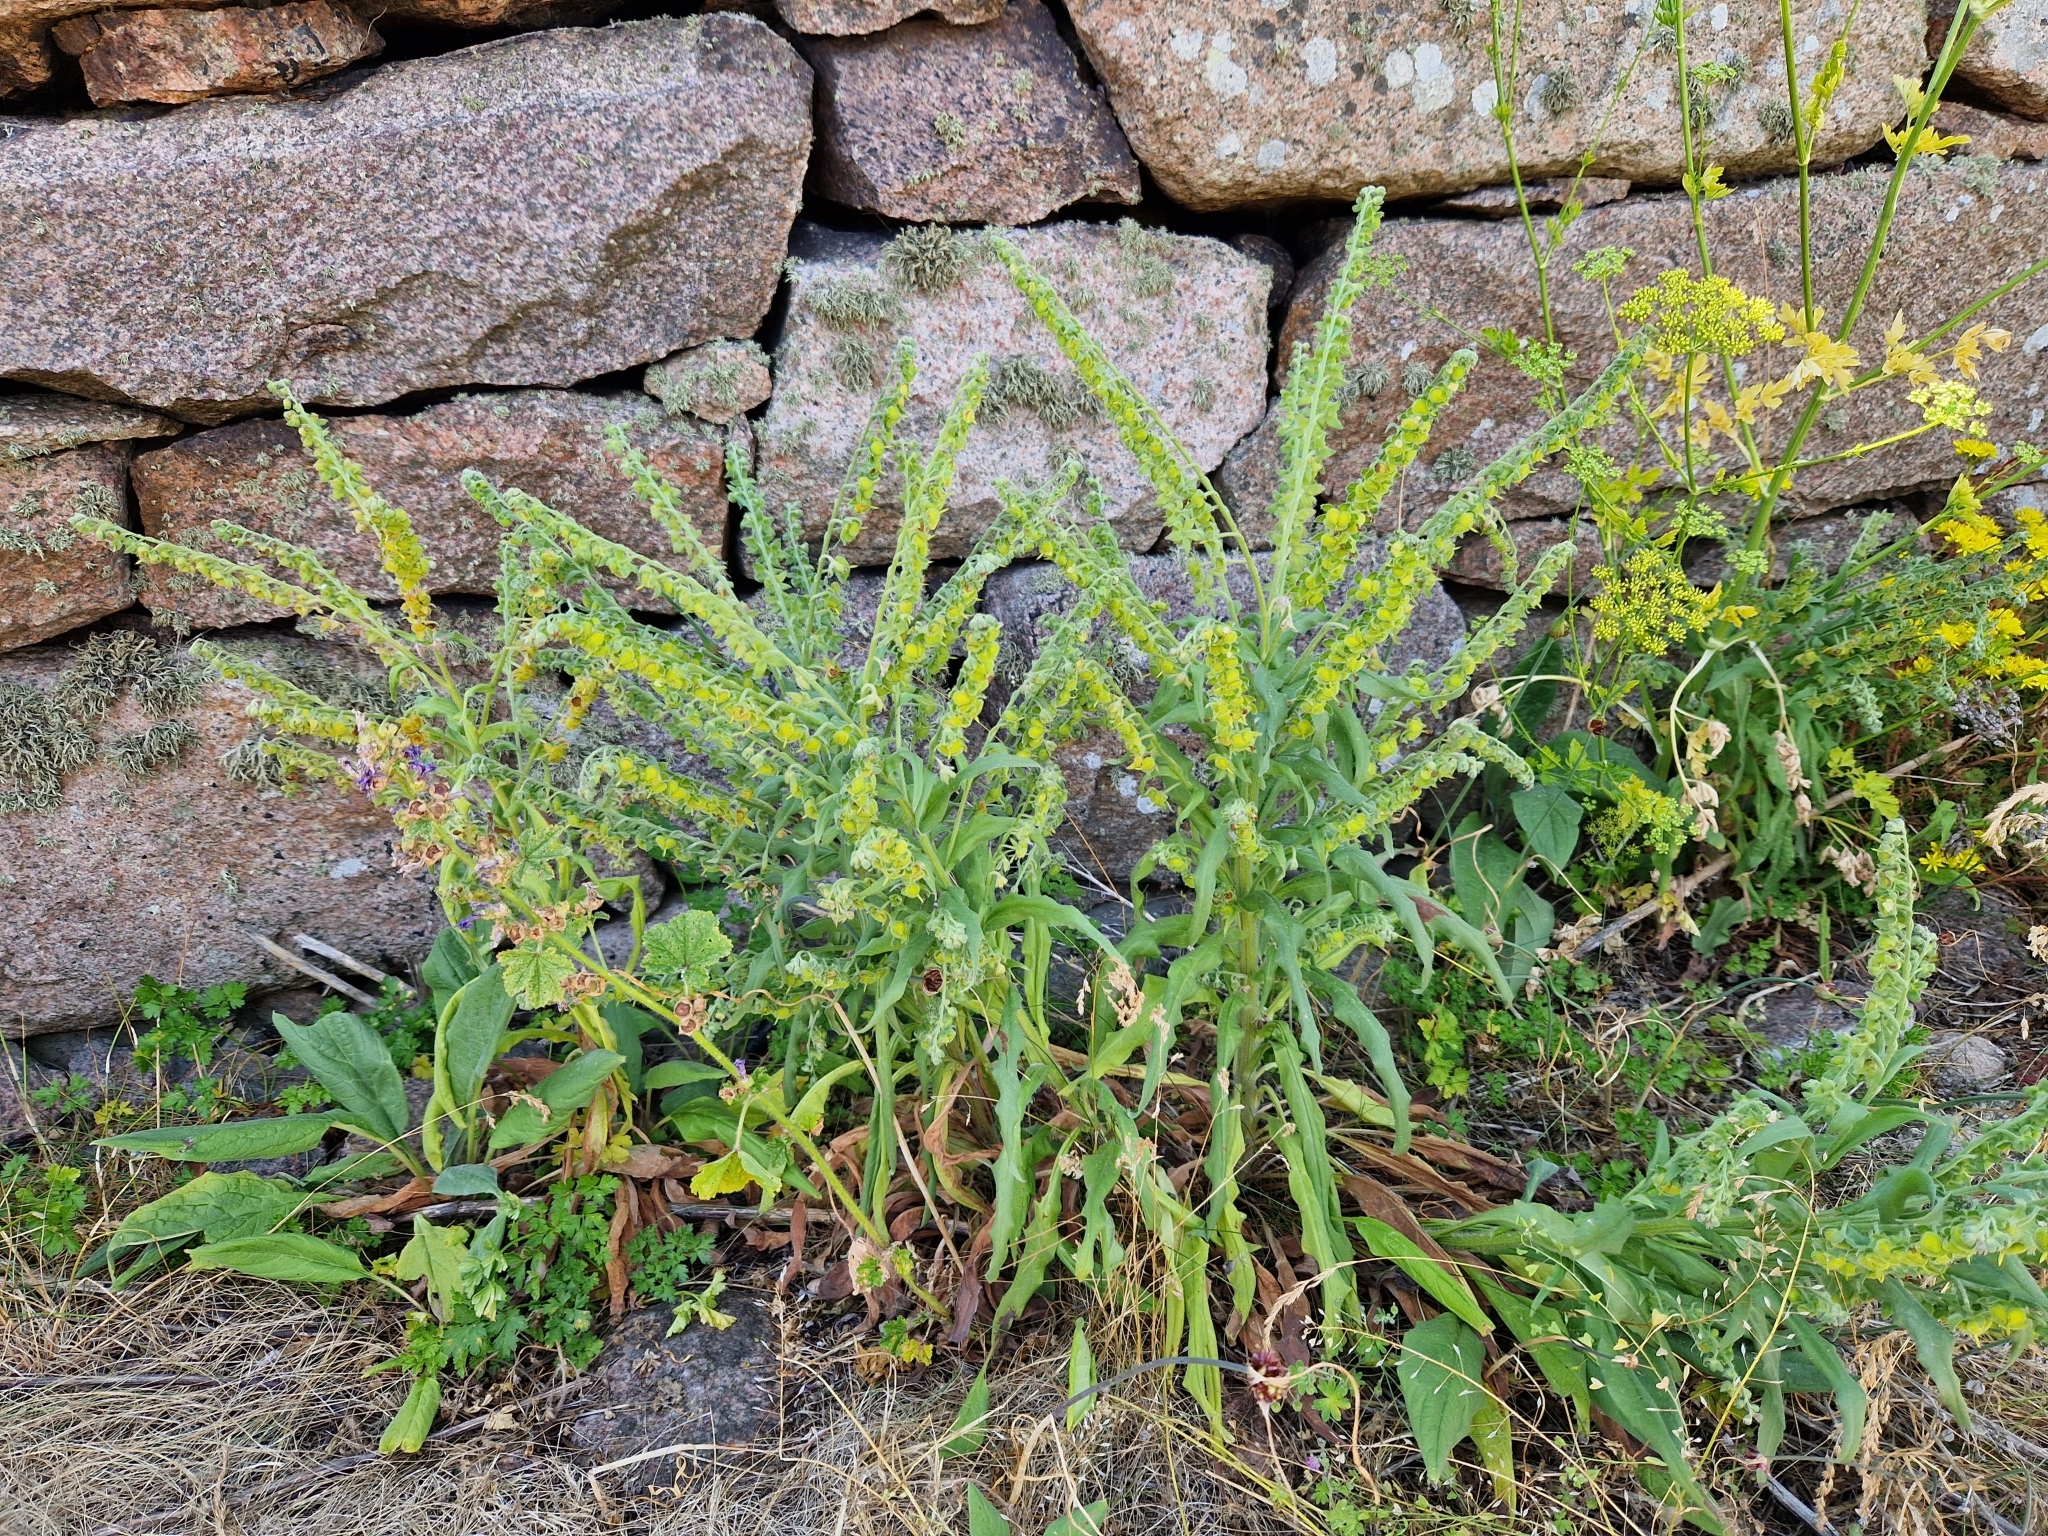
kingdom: Plantae
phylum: Tracheophyta
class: Magnoliopsida
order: Boraginales
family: Boraginaceae
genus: Cynoglossum
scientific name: Cynoglossum officinale
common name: Hound's-tongue
